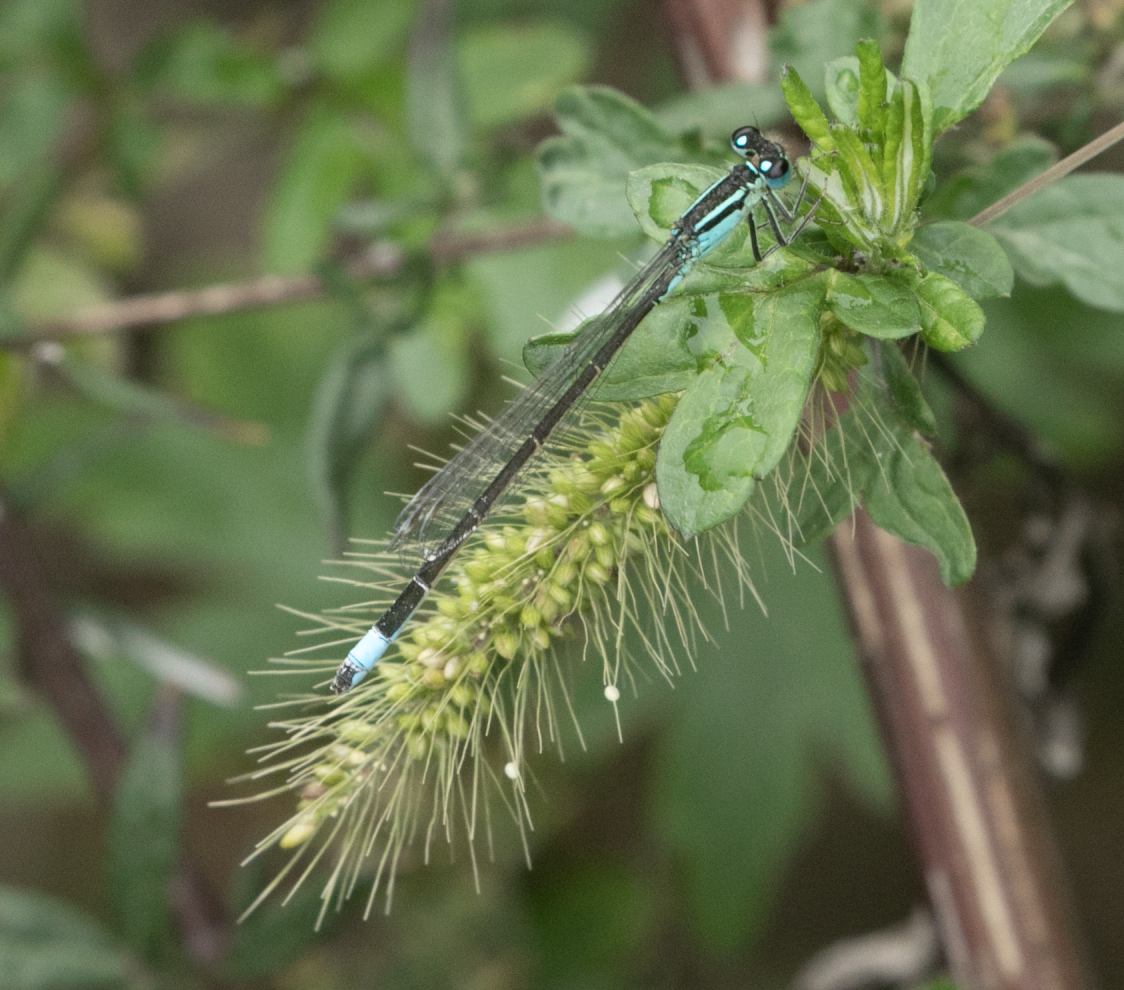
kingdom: Animalia
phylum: Arthropoda
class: Insecta
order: Odonata
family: Coenagrionidae
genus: Ischnura
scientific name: Ischnura elegans
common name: Blue-tailed damselfly
